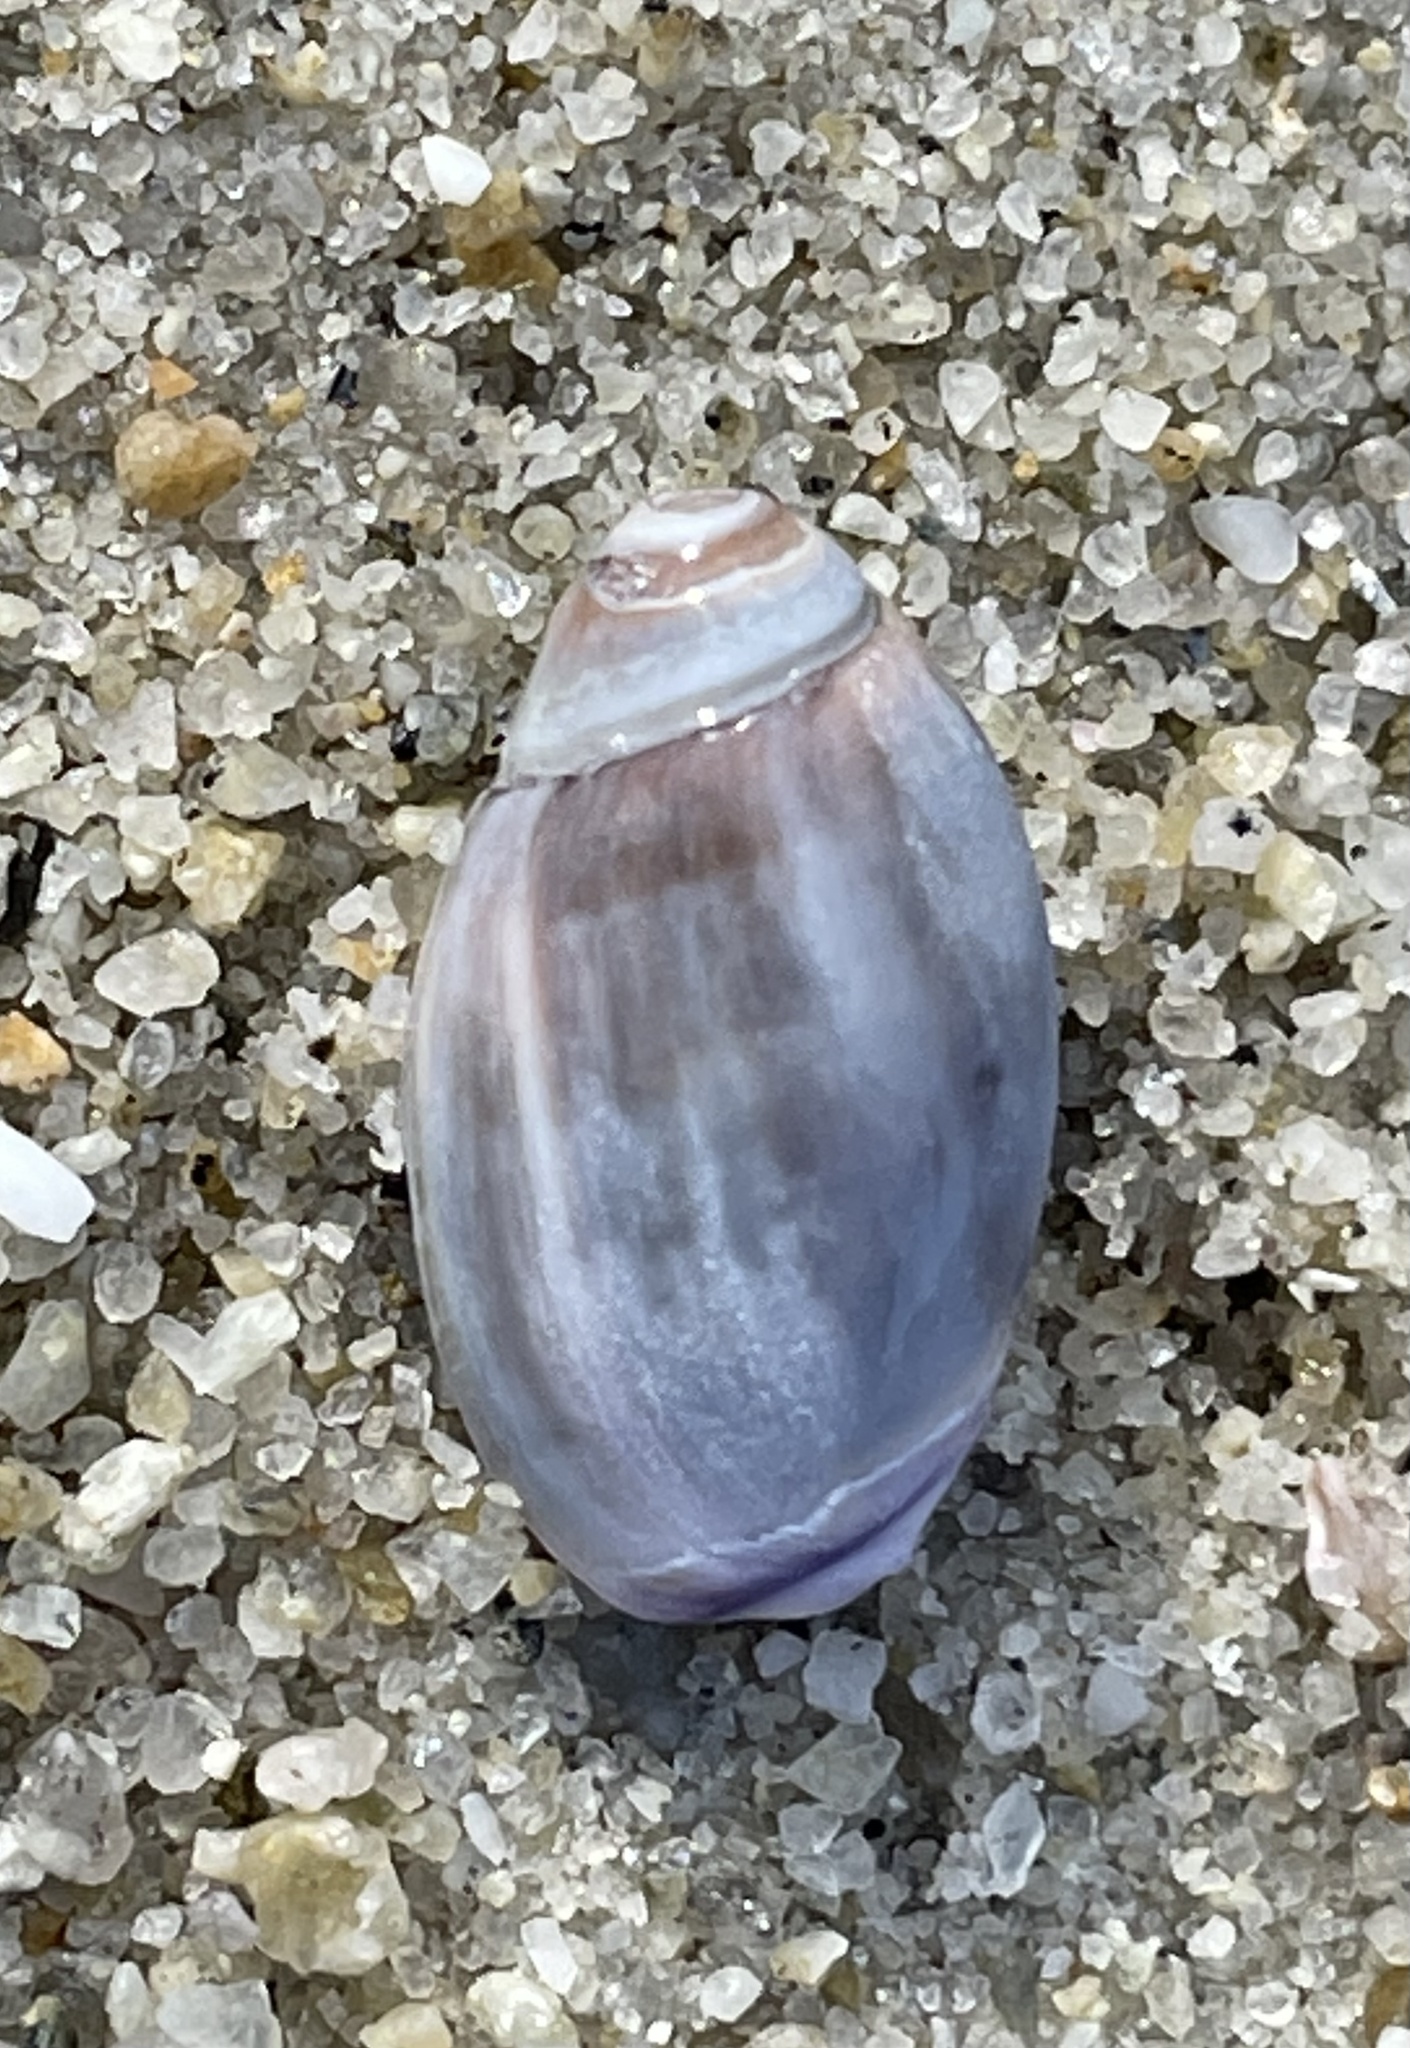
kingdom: Animalia
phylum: Mollusca
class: Gastropoda
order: Neogastropoda
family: Olividae
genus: Callianax
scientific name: Callianax biplicata
